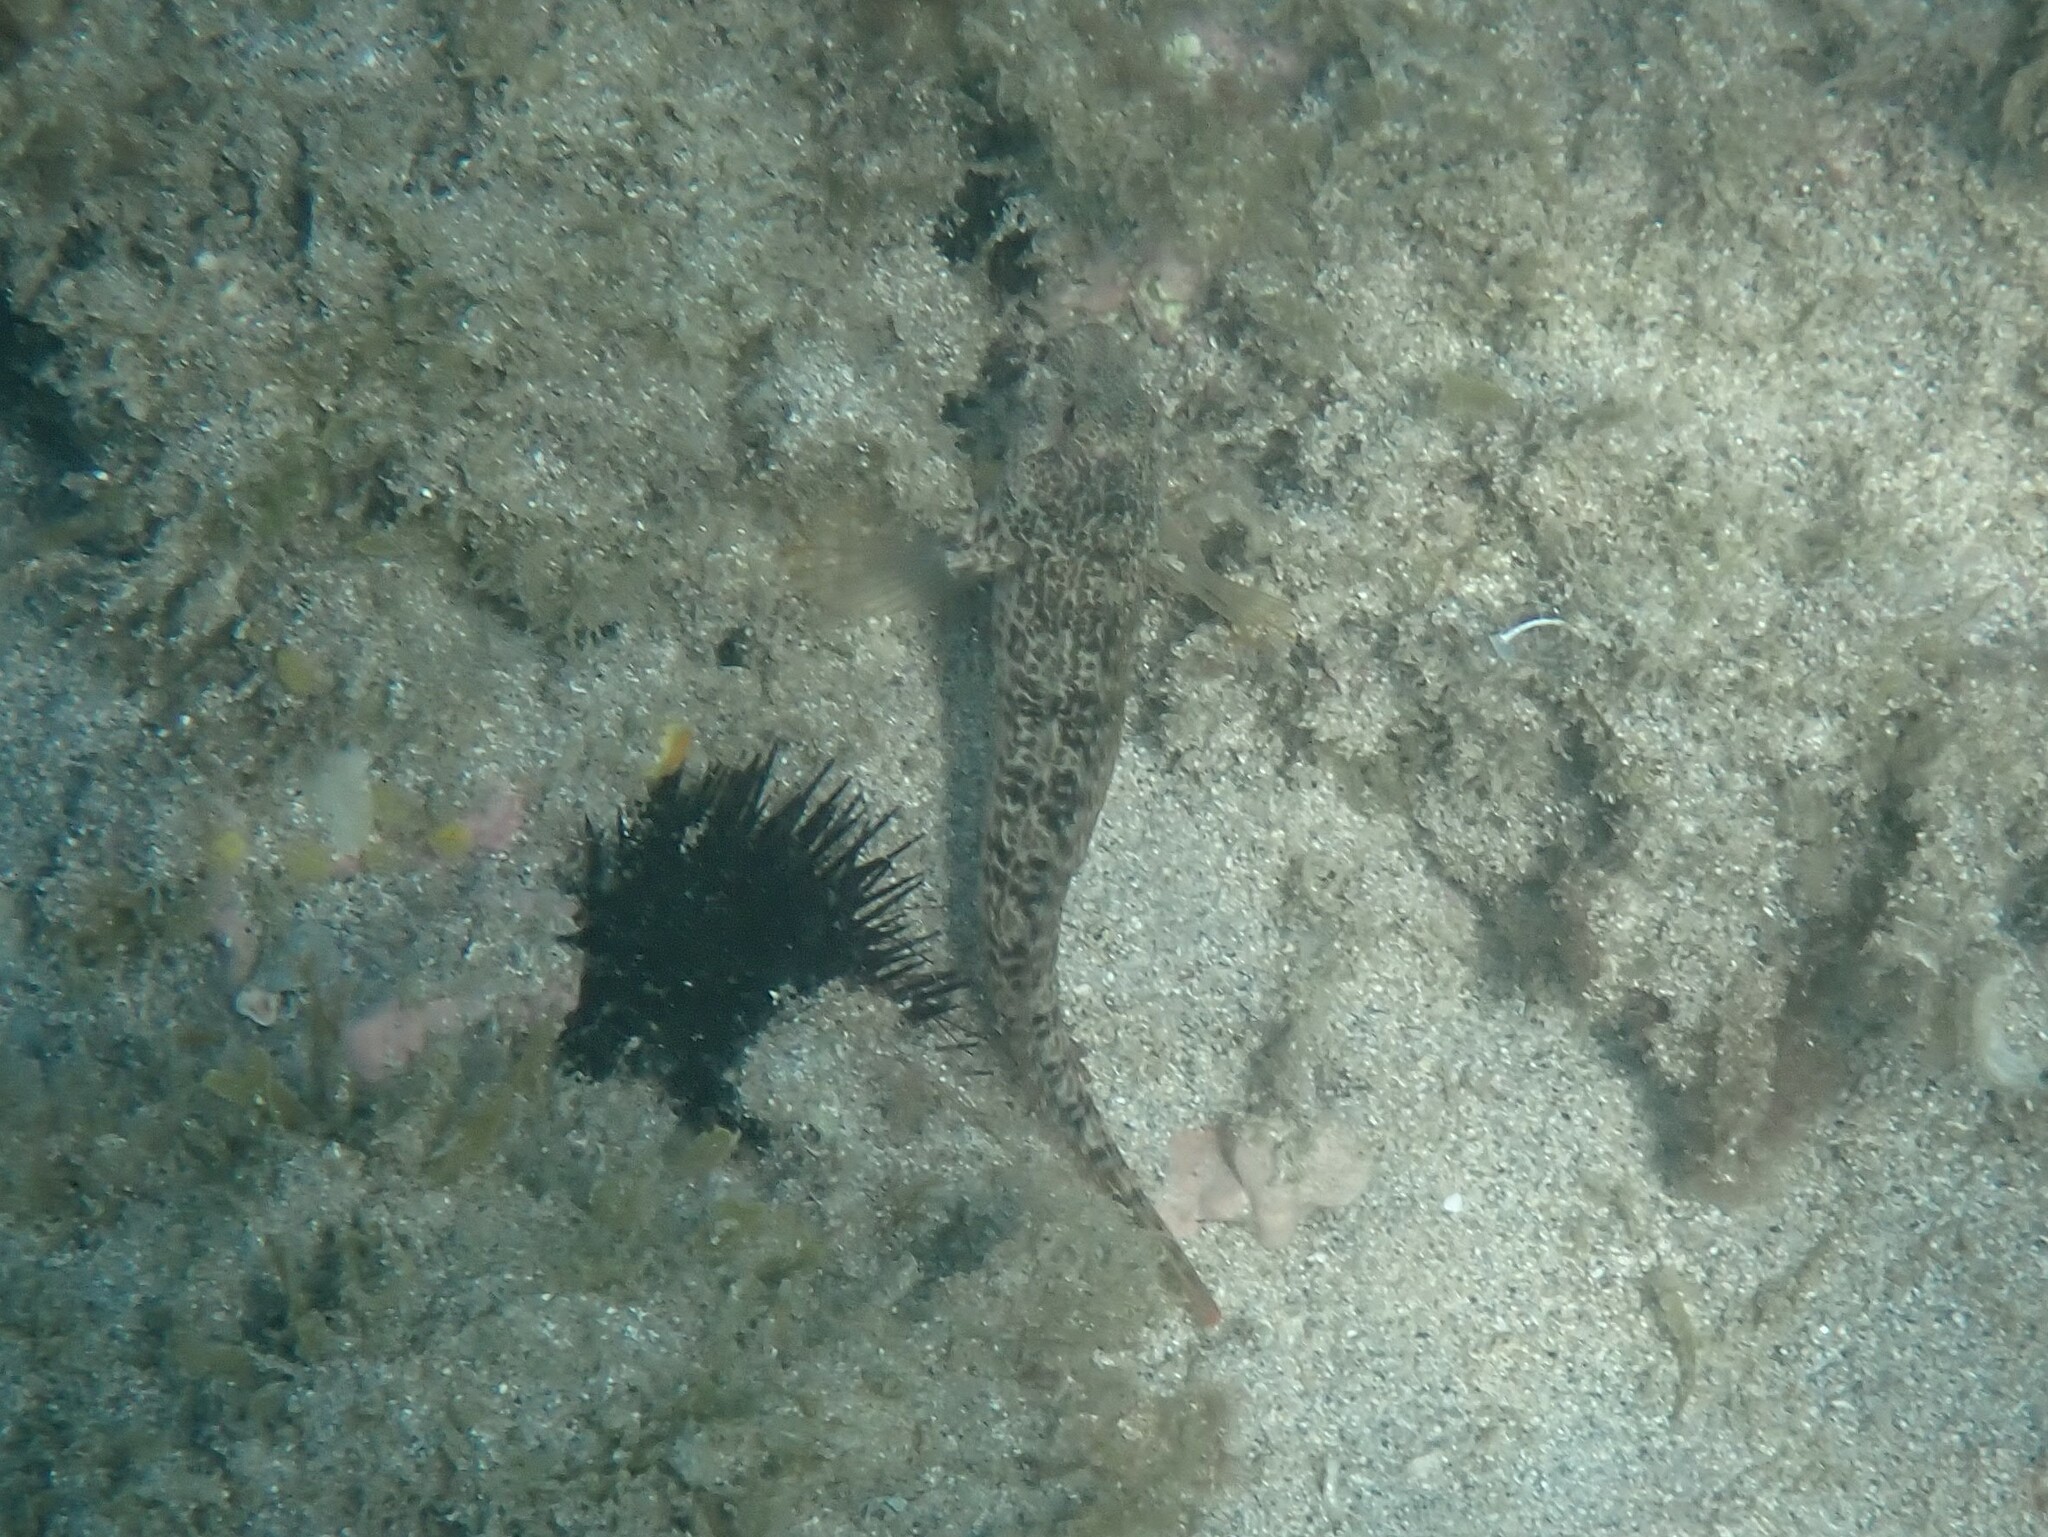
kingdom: Animalia
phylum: Chordata
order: Perciformes
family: Blenniidae
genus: Parablennius
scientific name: Parablennius pilicornis
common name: Ringneck blenny
